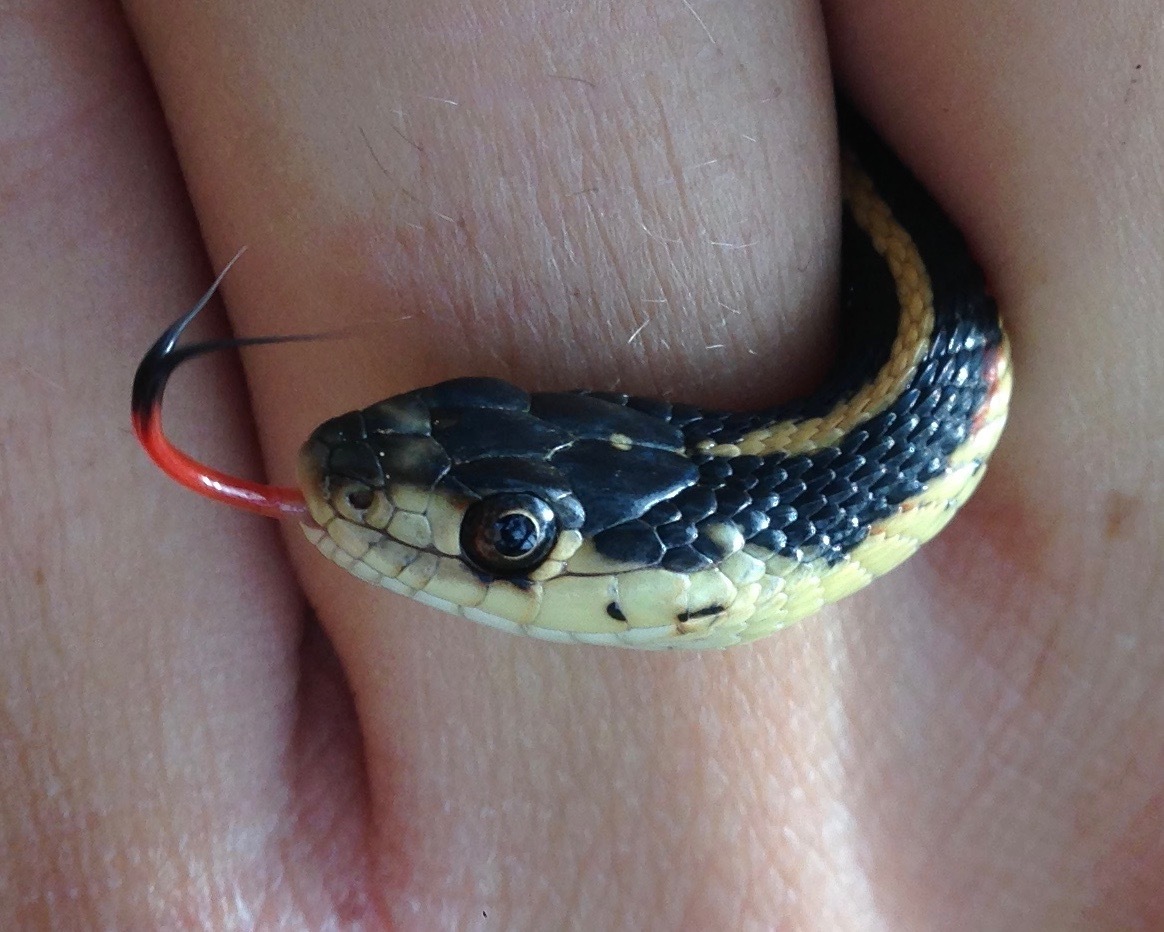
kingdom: Animalia
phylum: Chordata
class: Squamata
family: Colubridae
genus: Thamnophis
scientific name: Thamnophis sirtalis
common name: Common garter snake
